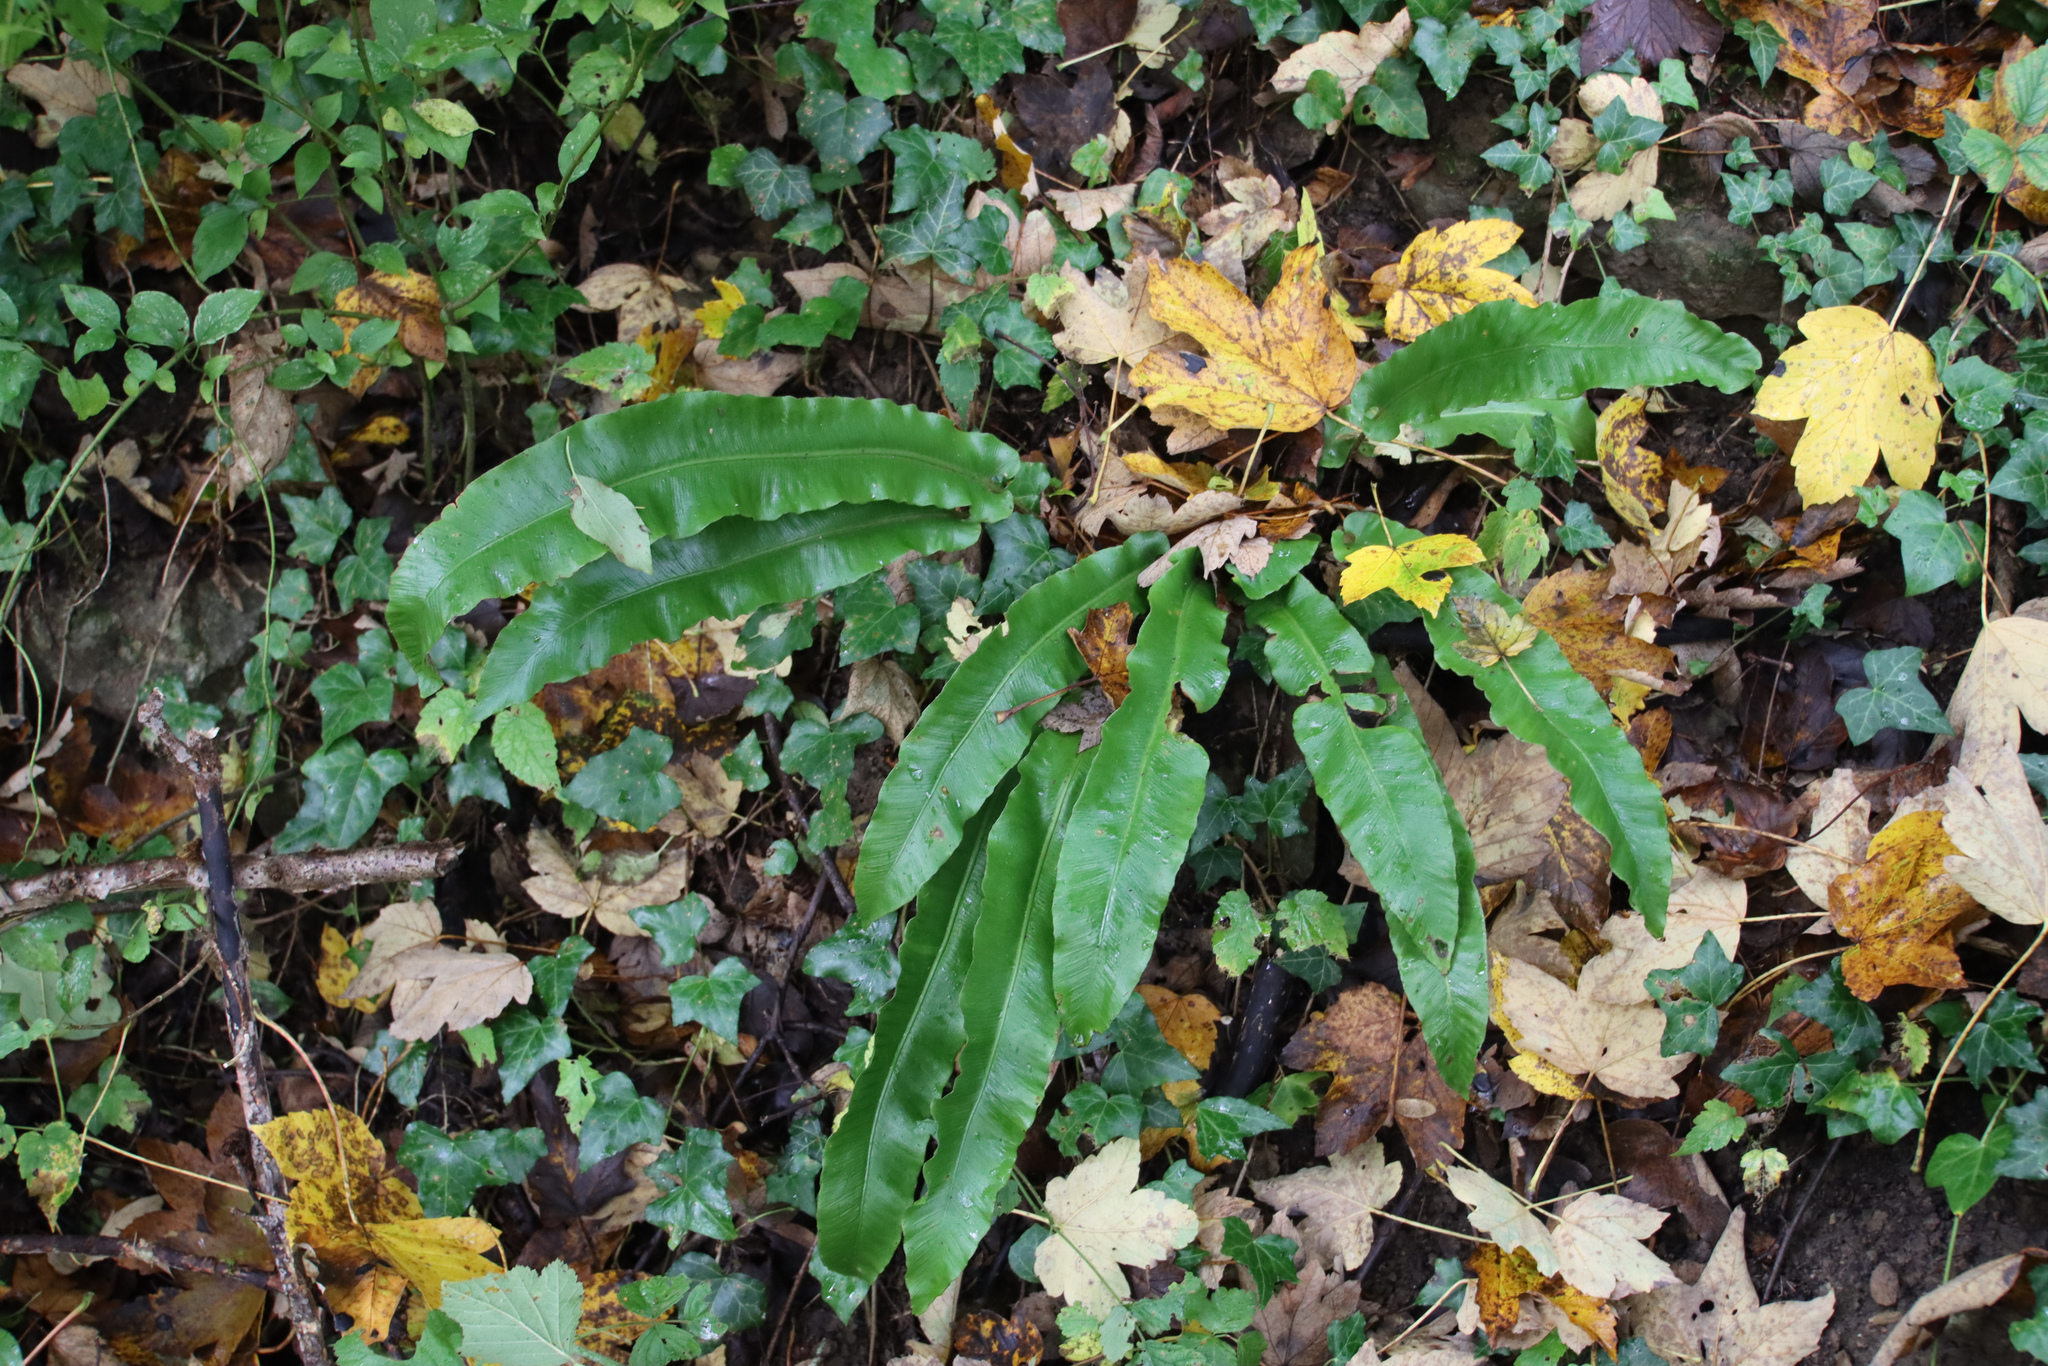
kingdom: Plantae
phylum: Tracheophyta
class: Polypodiopsida
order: Polypodiales
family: Aspleniaceae
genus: Asplenium
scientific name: Asplenium scolopendrium
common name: Hart's-tongue fern
